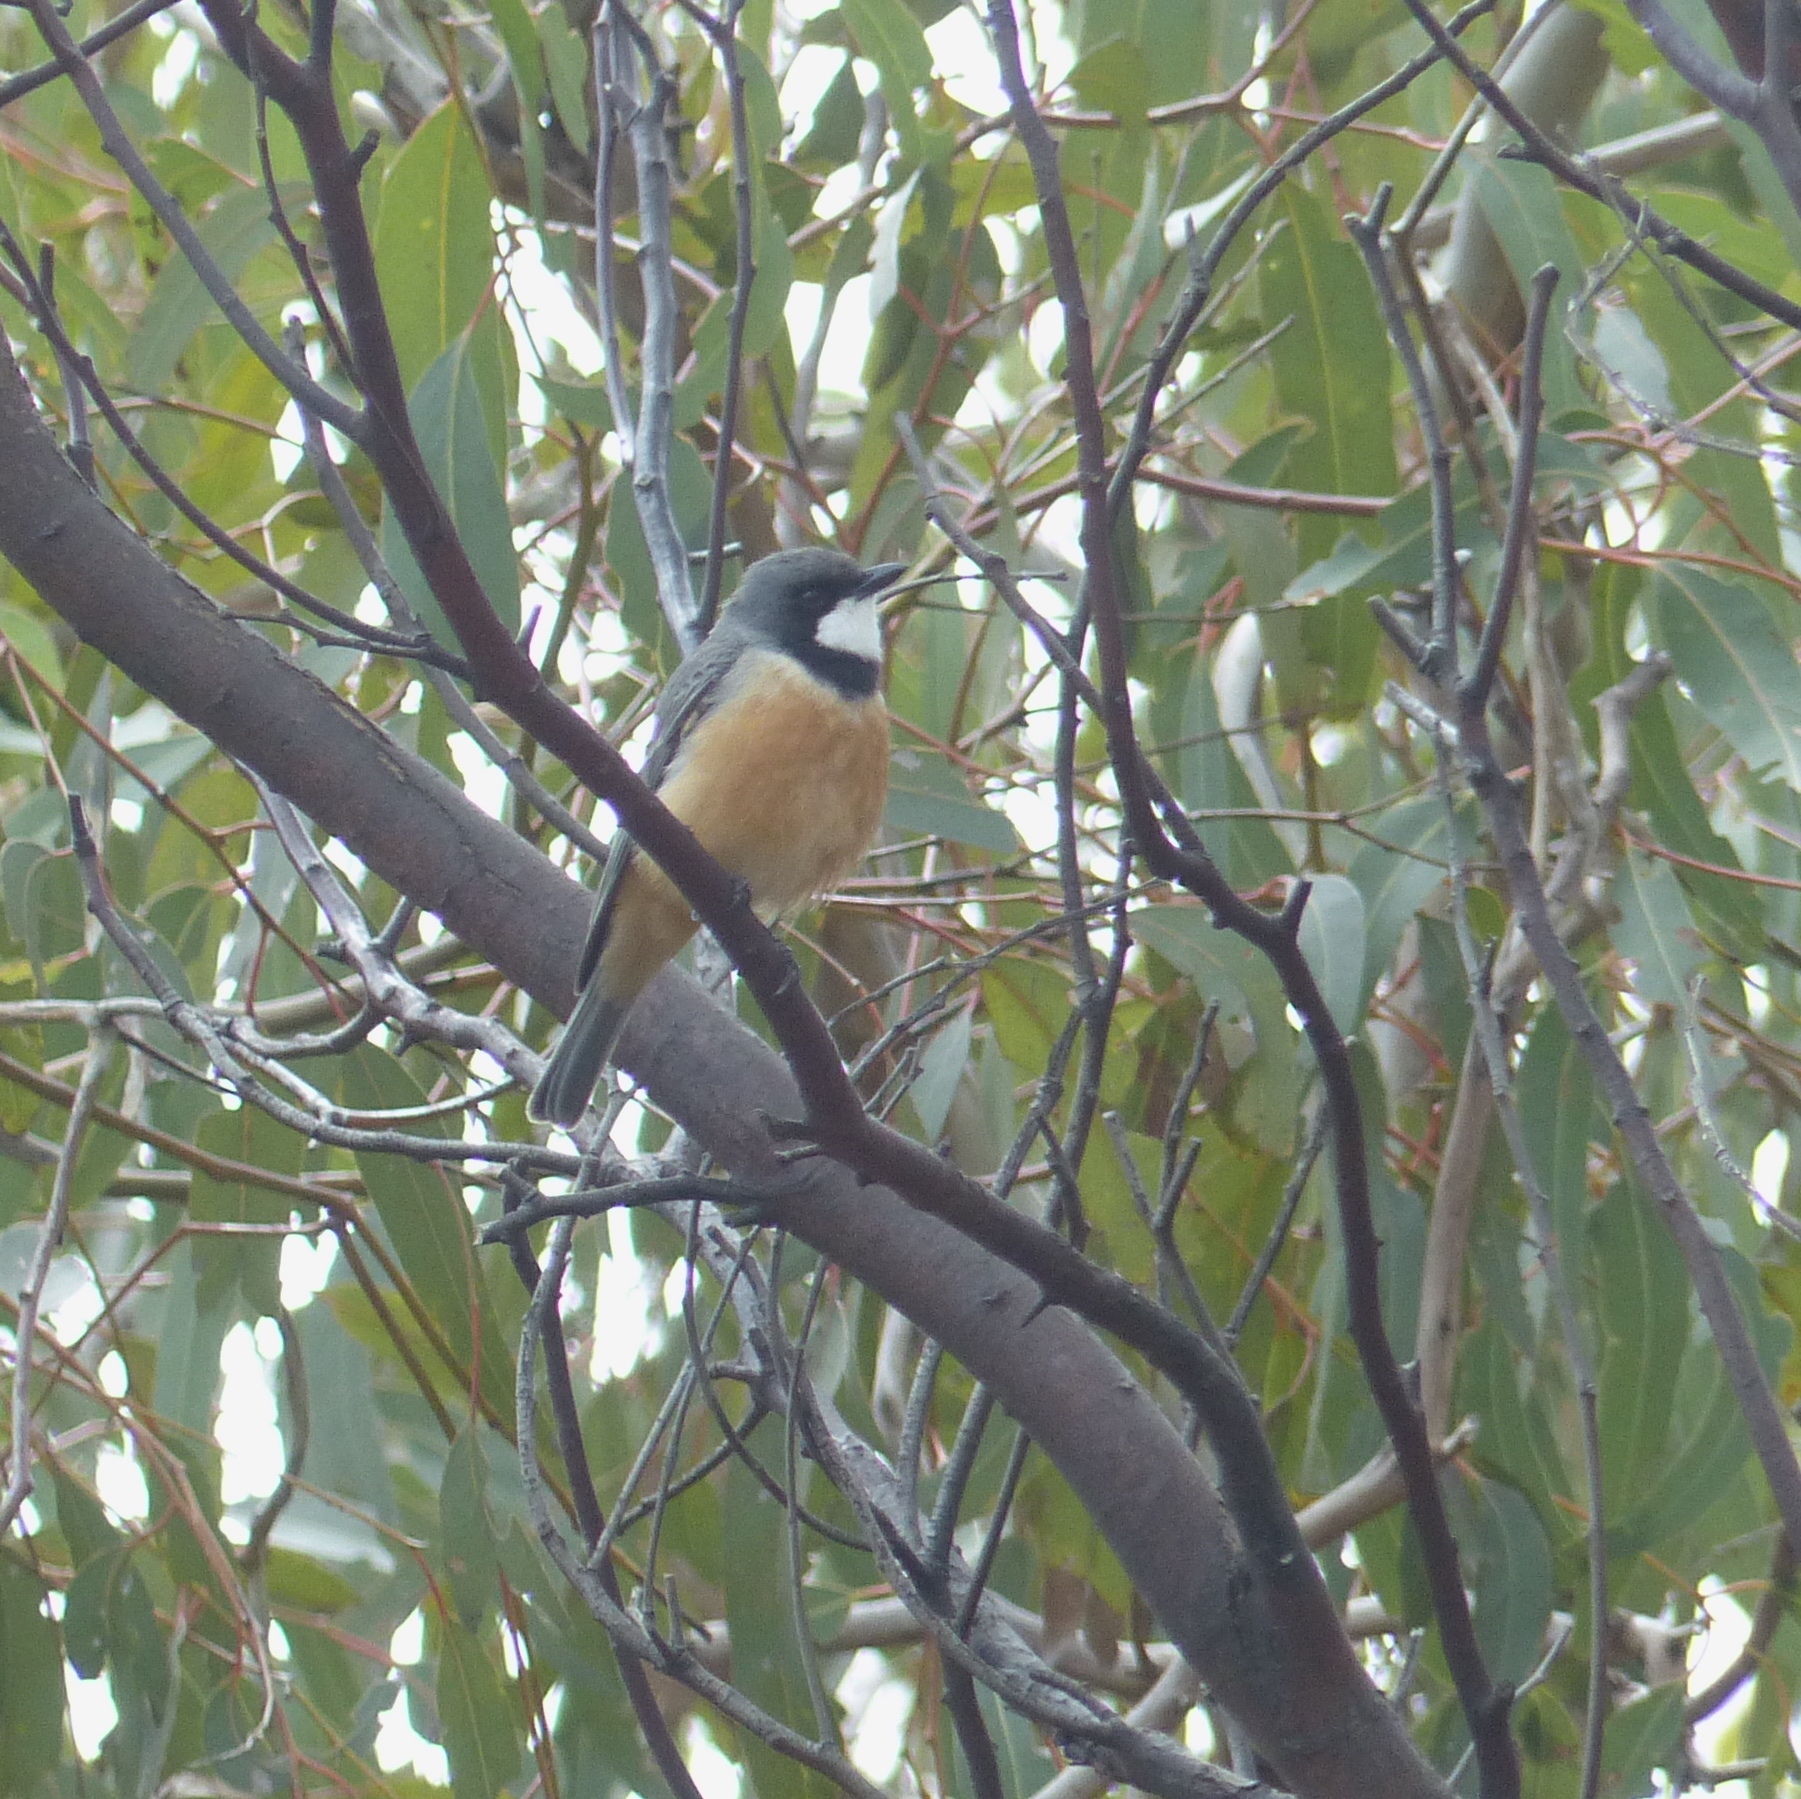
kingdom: Animalia
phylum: Chordata
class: Aves
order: Passeriformes
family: Pachycephalidae
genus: Pachycephala
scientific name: Pachycephala rufiventris
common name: Rufous whistler
